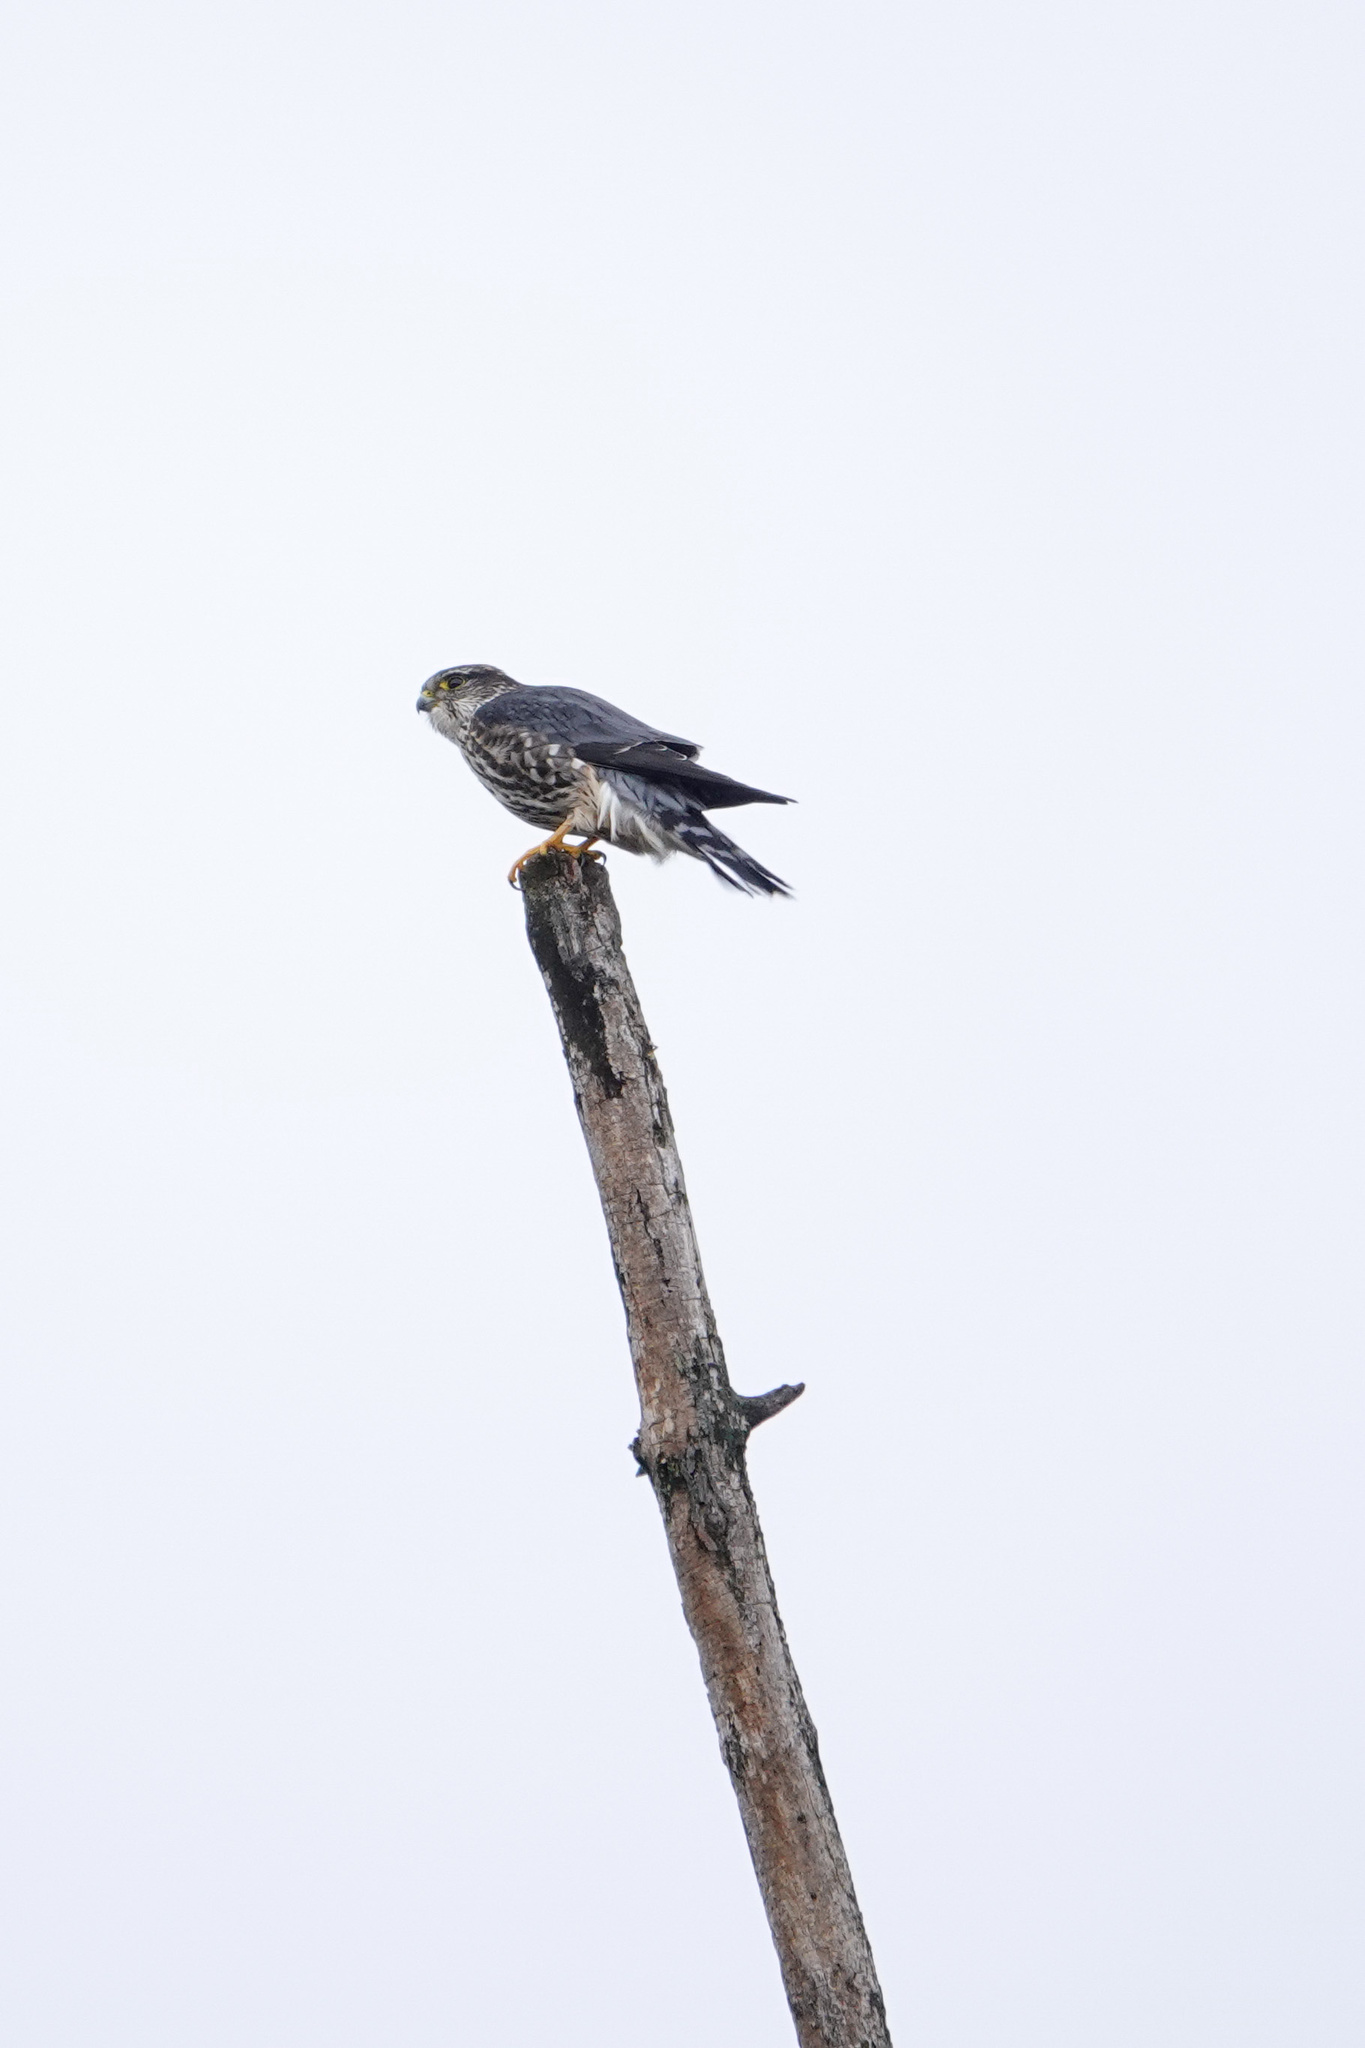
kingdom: Animalia
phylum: Chordata
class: Aves
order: Falconiformes
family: Falconidae
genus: Falco
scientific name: Falco columbarius
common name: Merlin
